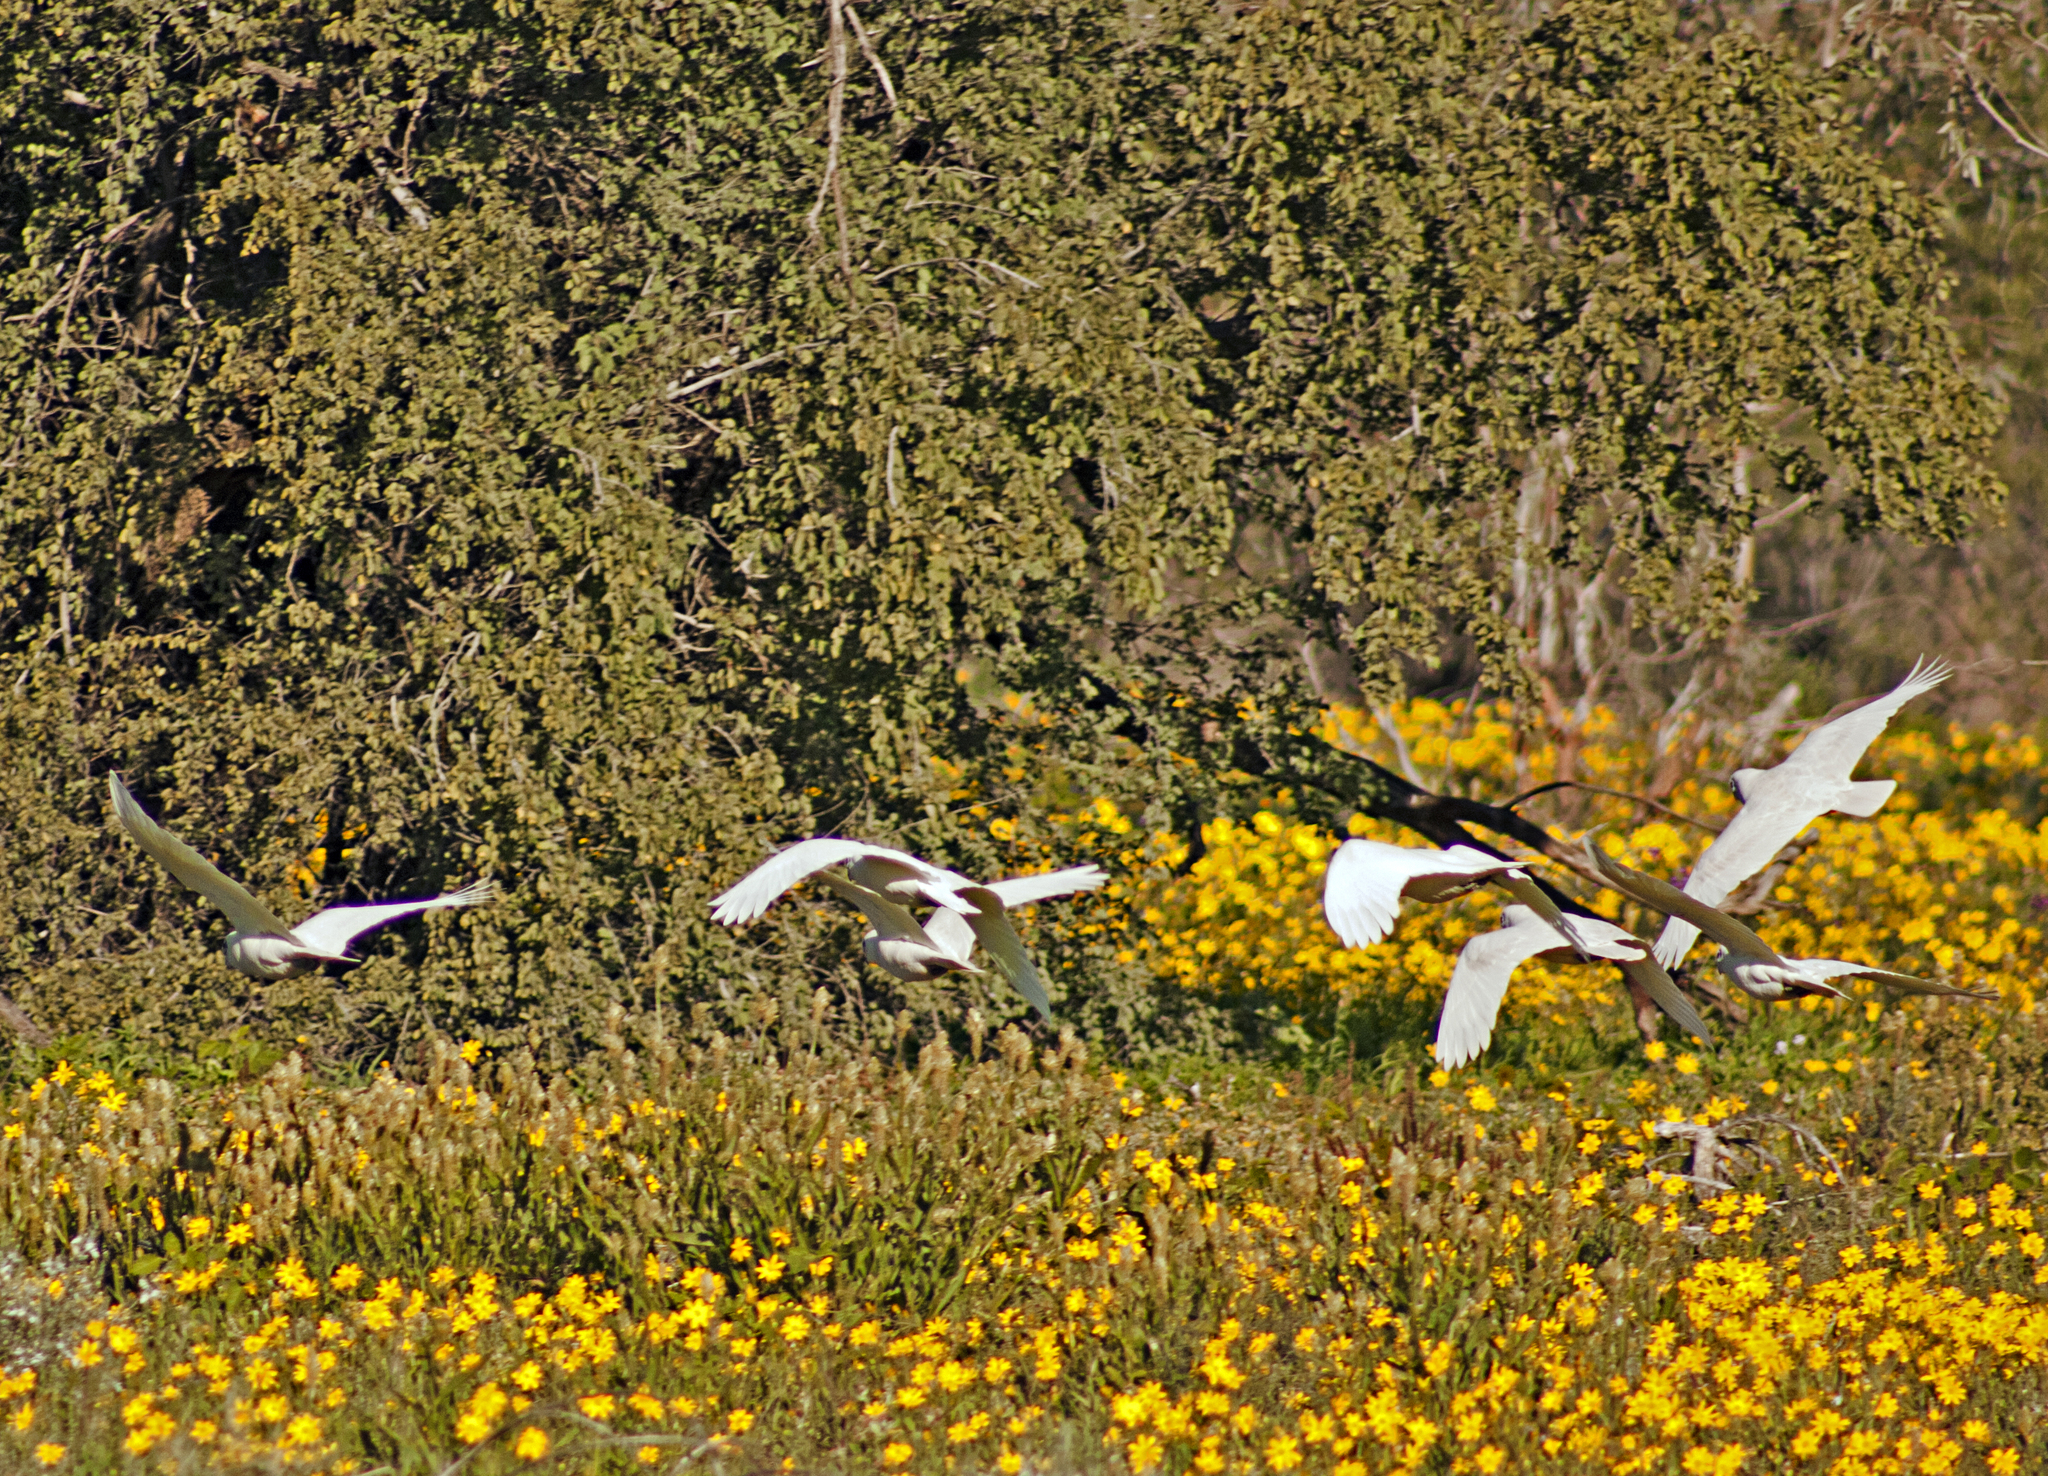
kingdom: Animalia
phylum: Chordata
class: Aves
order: Psittaciformes
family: Psittacidae
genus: Cacatua
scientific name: Cacatua sanguinea
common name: Little corella
